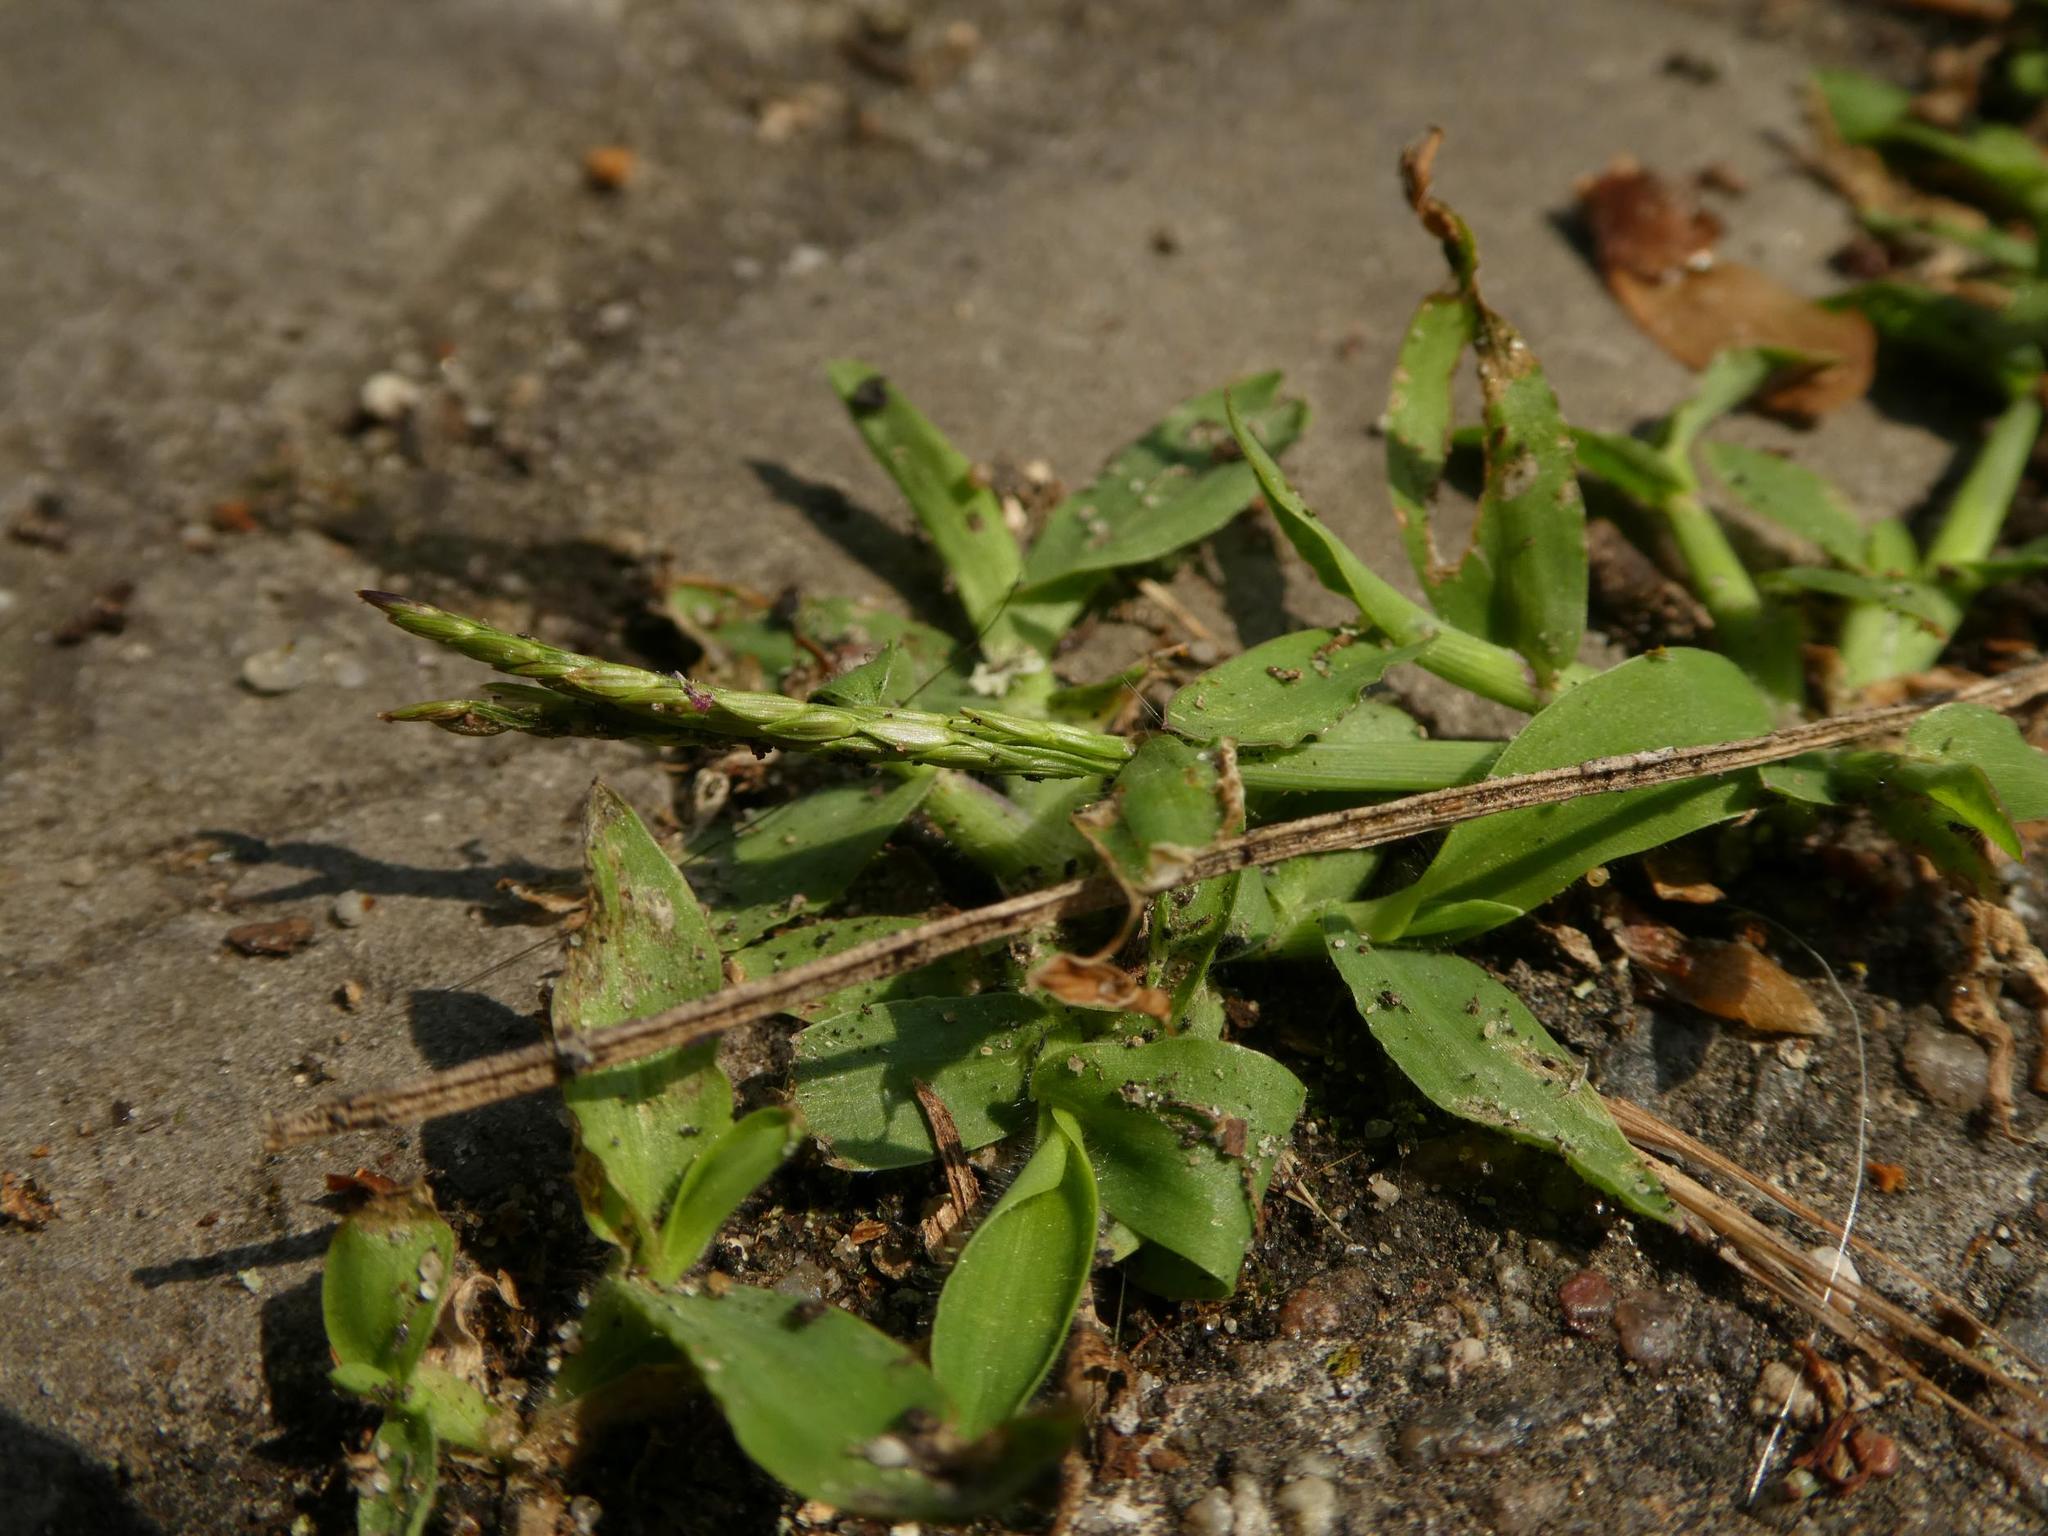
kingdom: Plantae
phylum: Tracheophyta
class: Liliopsida
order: Poales
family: Poaceae
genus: Digitaria
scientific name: Digitaria sanguinalis
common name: Hairy crabgrass
